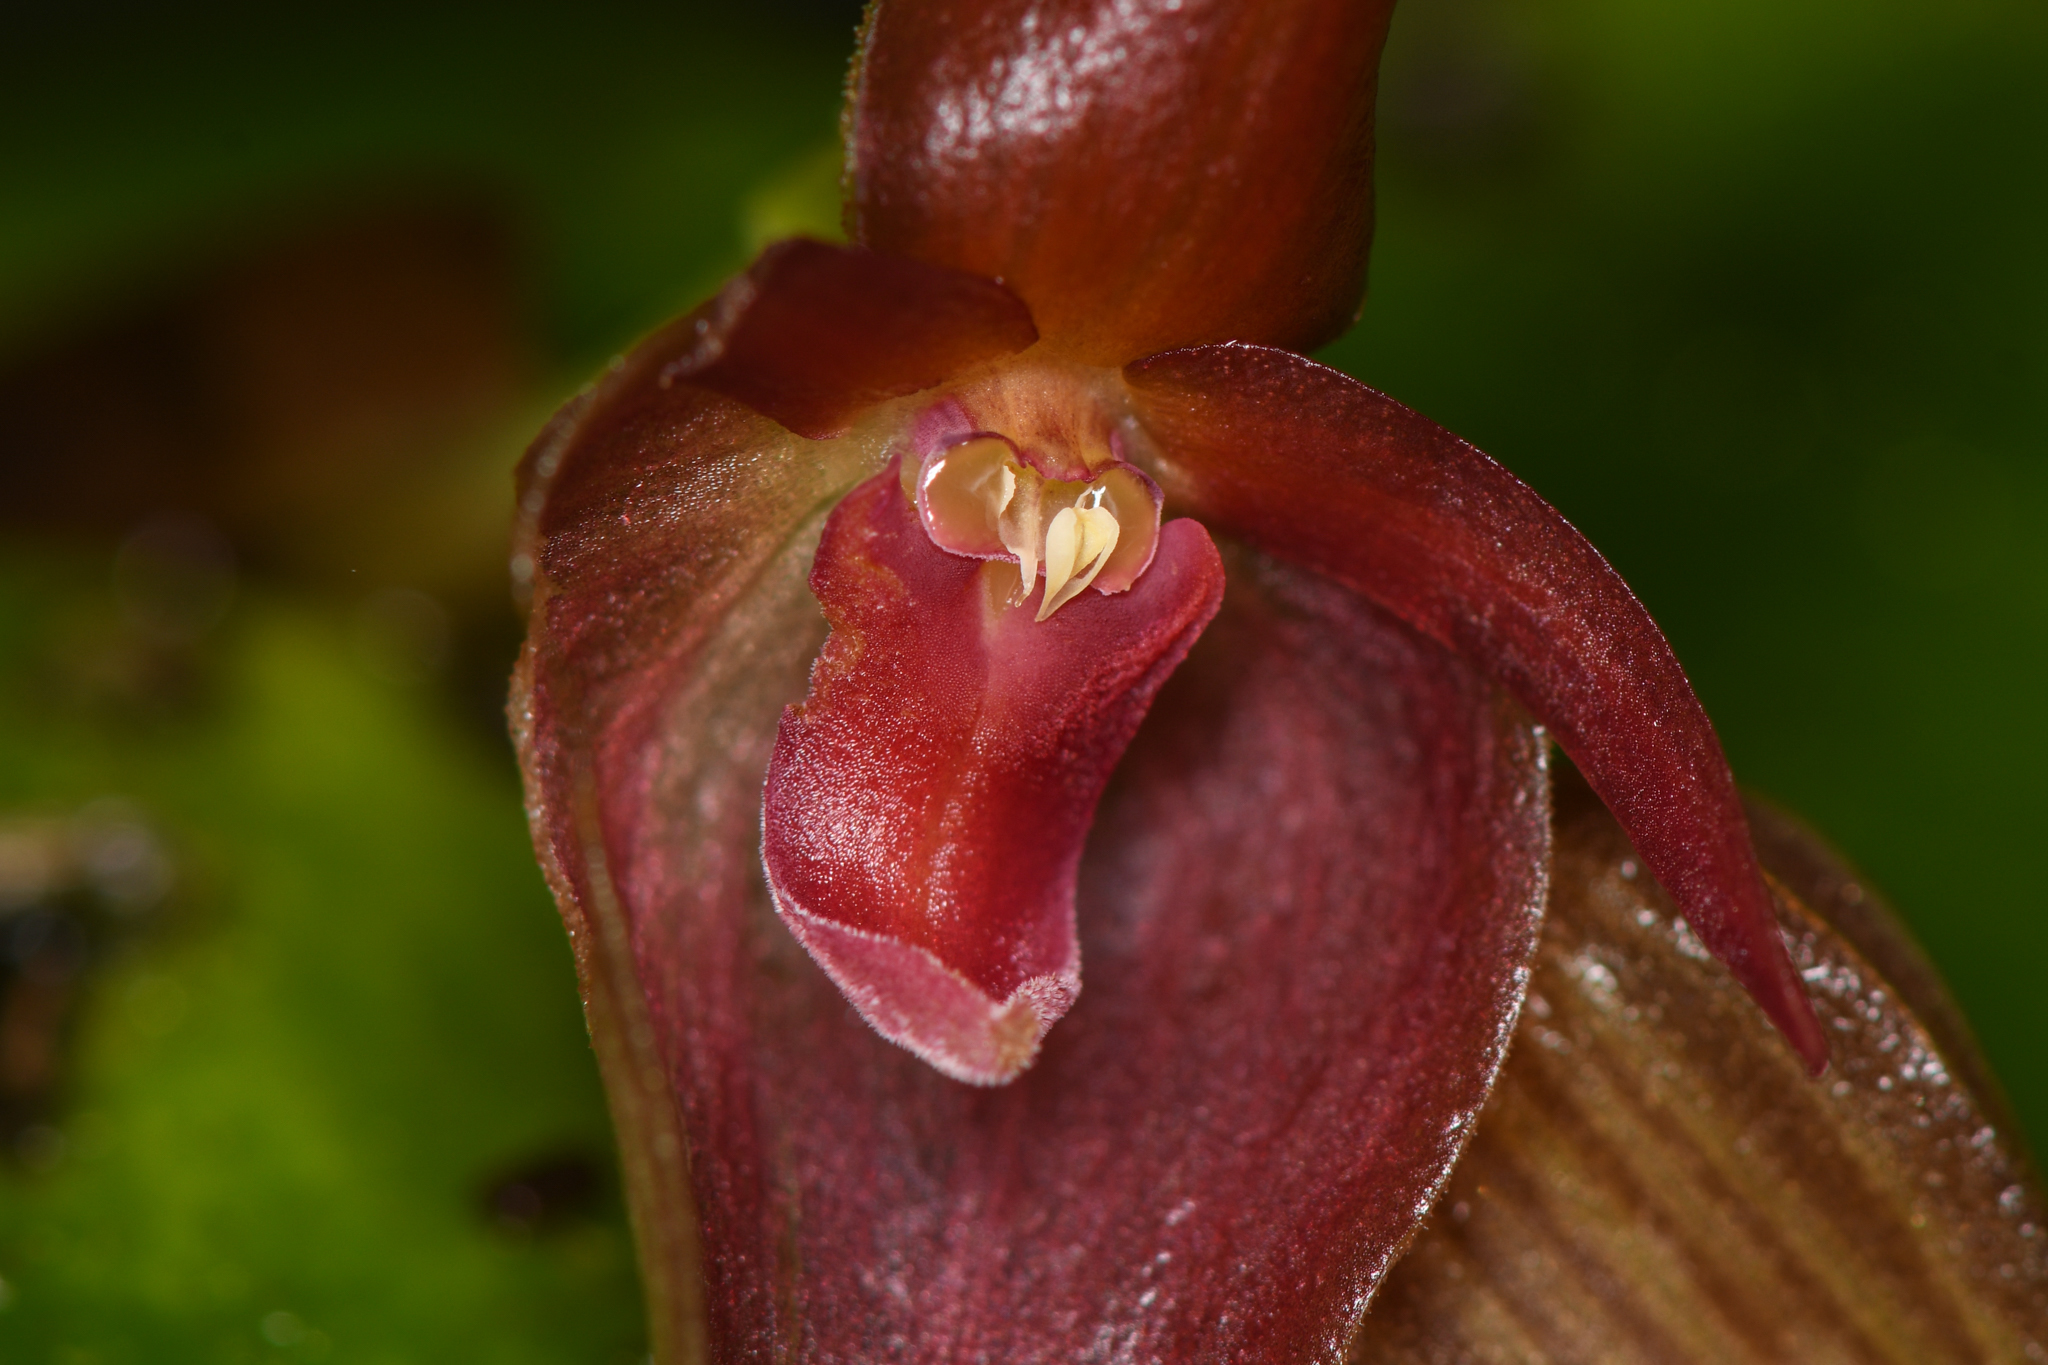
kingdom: Plantae
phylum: Tracheophyta
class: Liliopsida
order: Asparagales
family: Orchidaceae
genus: Pleurothallis
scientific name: Pleurothallis cardiothallis
